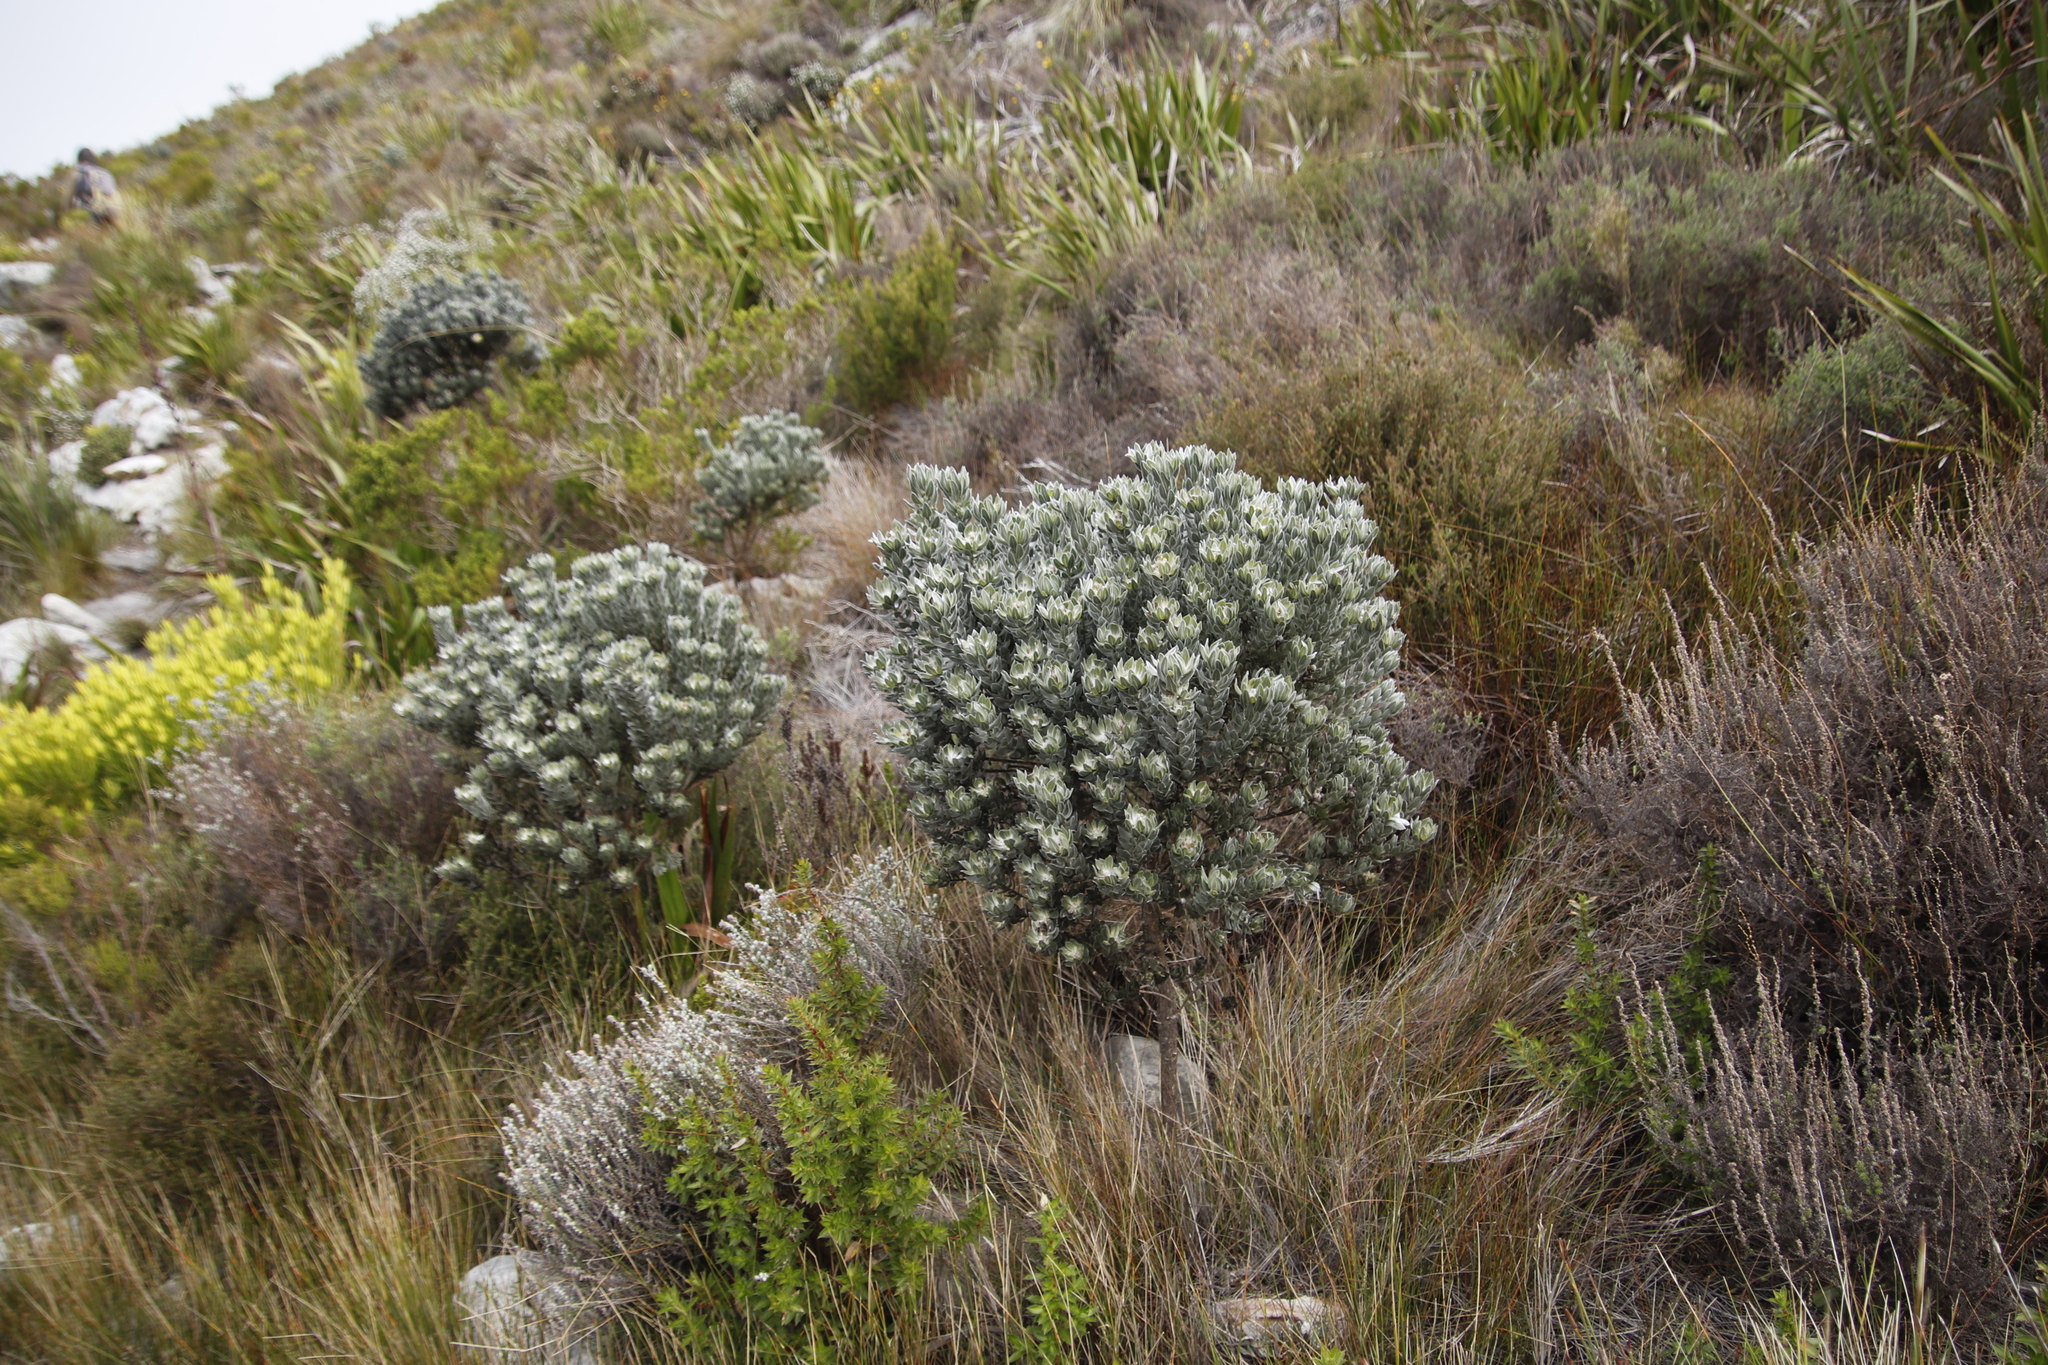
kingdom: Plantae
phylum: Tracheophyta
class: Magnoliopsida
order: Fabales
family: Fabaceae
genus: Xiphotheca
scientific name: Xiphotheca fruticosa
